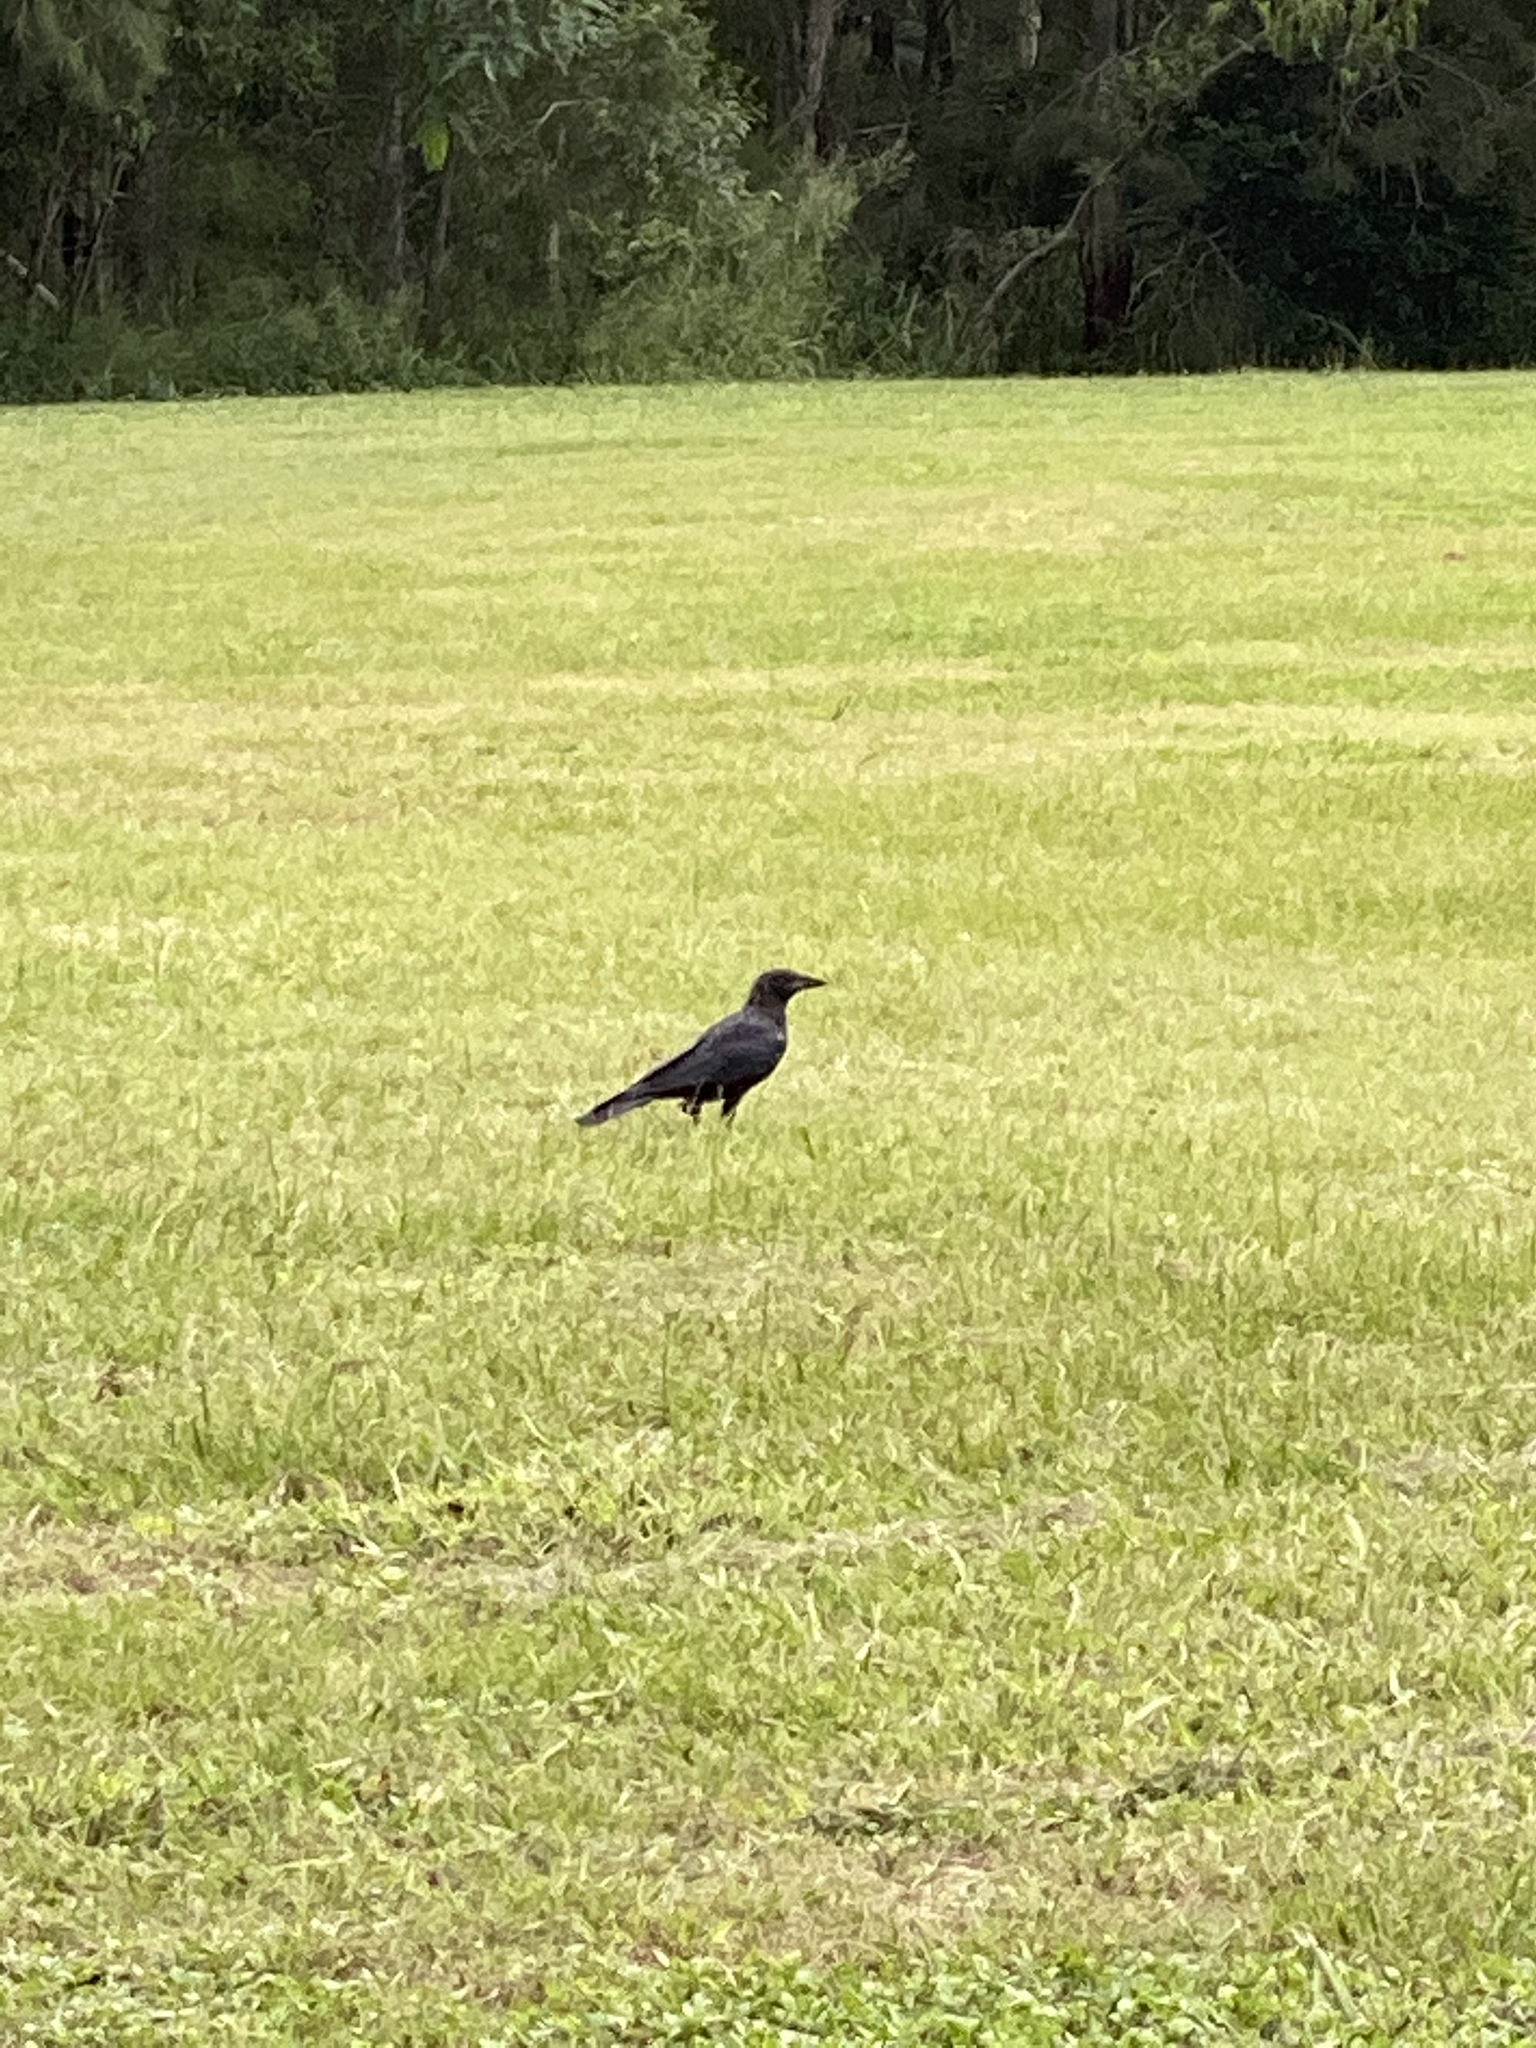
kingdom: Animalia
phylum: Chordata
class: Aves
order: Passeriformes
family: Corvidae
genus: Corvus
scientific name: Corvus orru
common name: Torresian crow
